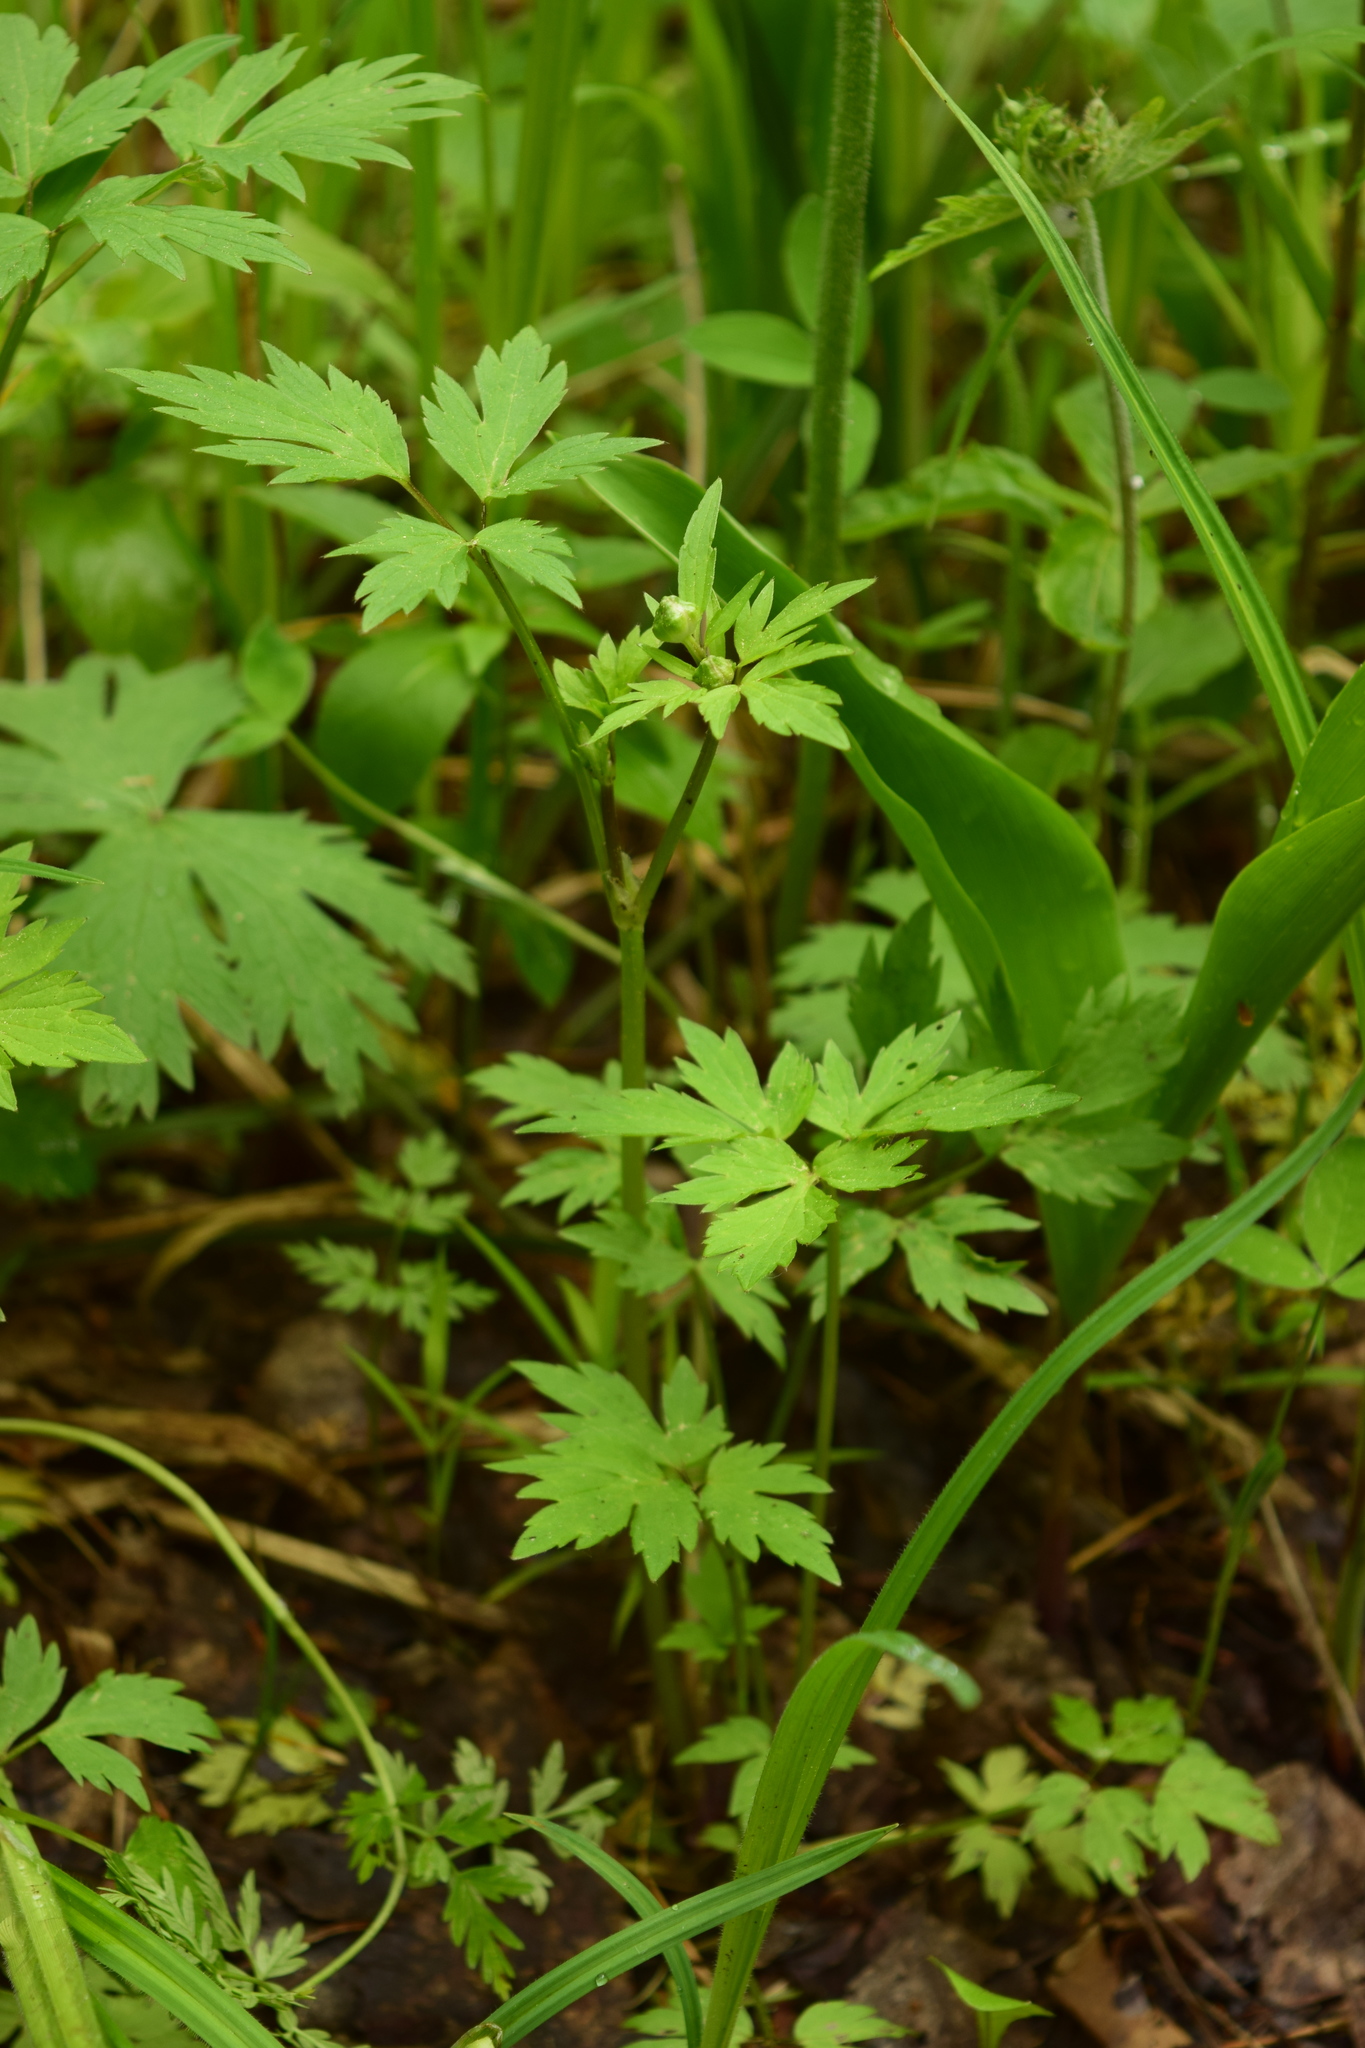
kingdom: Plantae
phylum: Tracheophyta
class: Magnoliopsida
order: Ranunculales
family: Ranunculaceae
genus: Ranunculus
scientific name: Ranunculus repens
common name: Creeping buttercup
